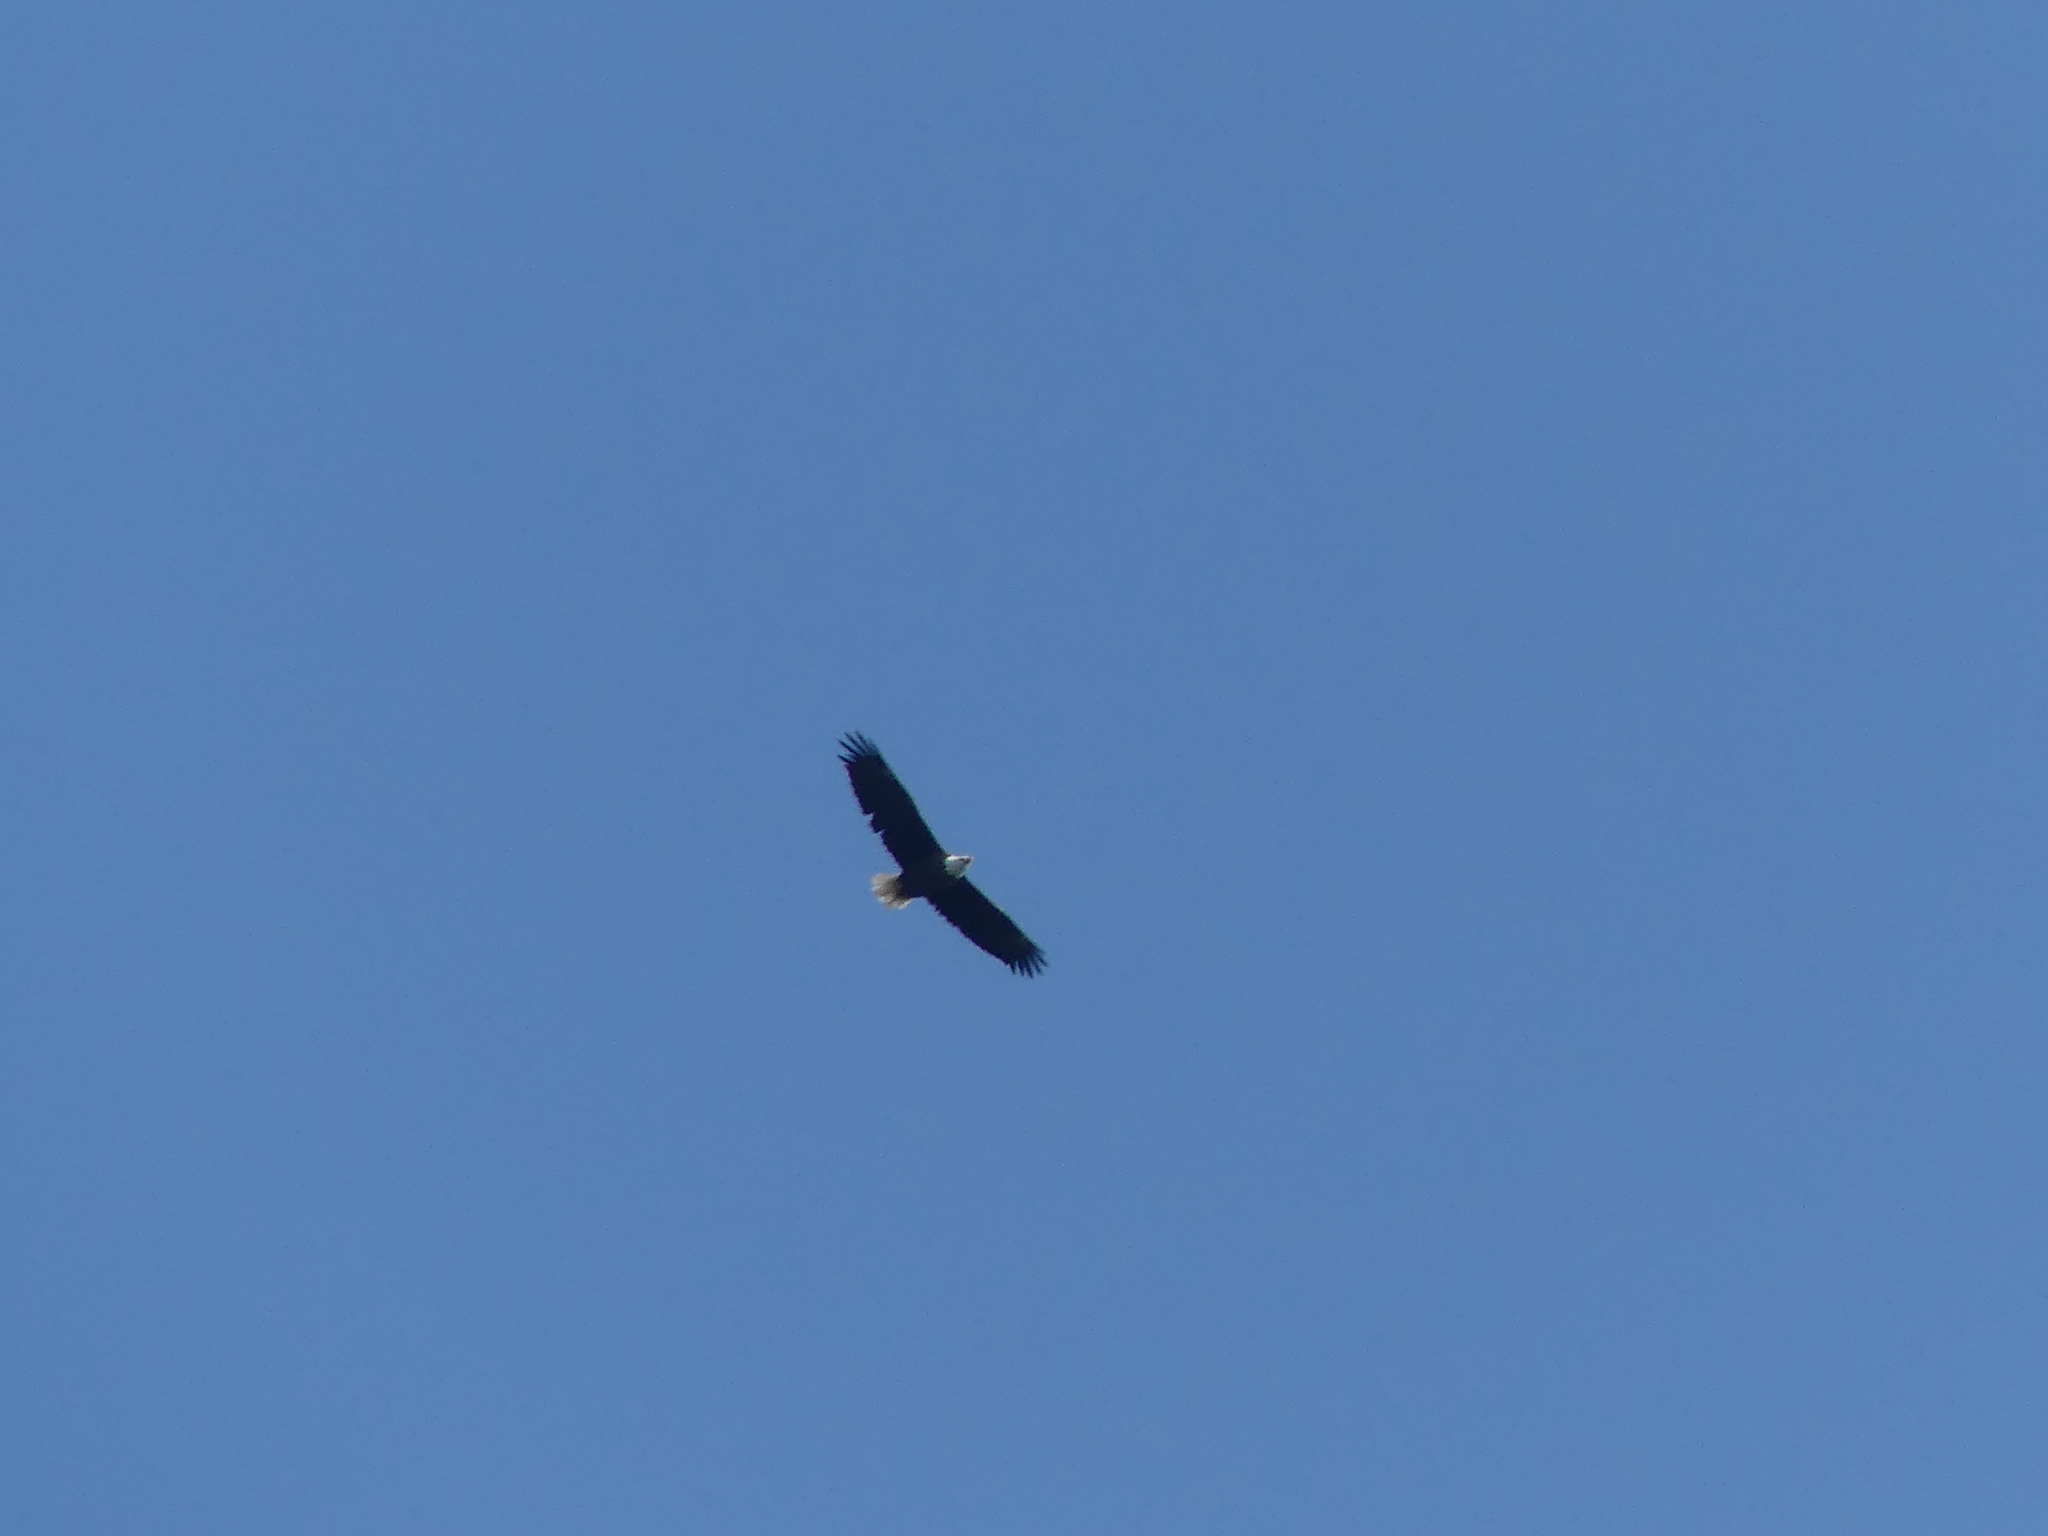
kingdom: Animalia
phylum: Chordata
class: Aves
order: Accipitriformes
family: Accipitridae
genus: Haliaeetus
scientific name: Haliaeetus leucocephalus
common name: Bald eagle
